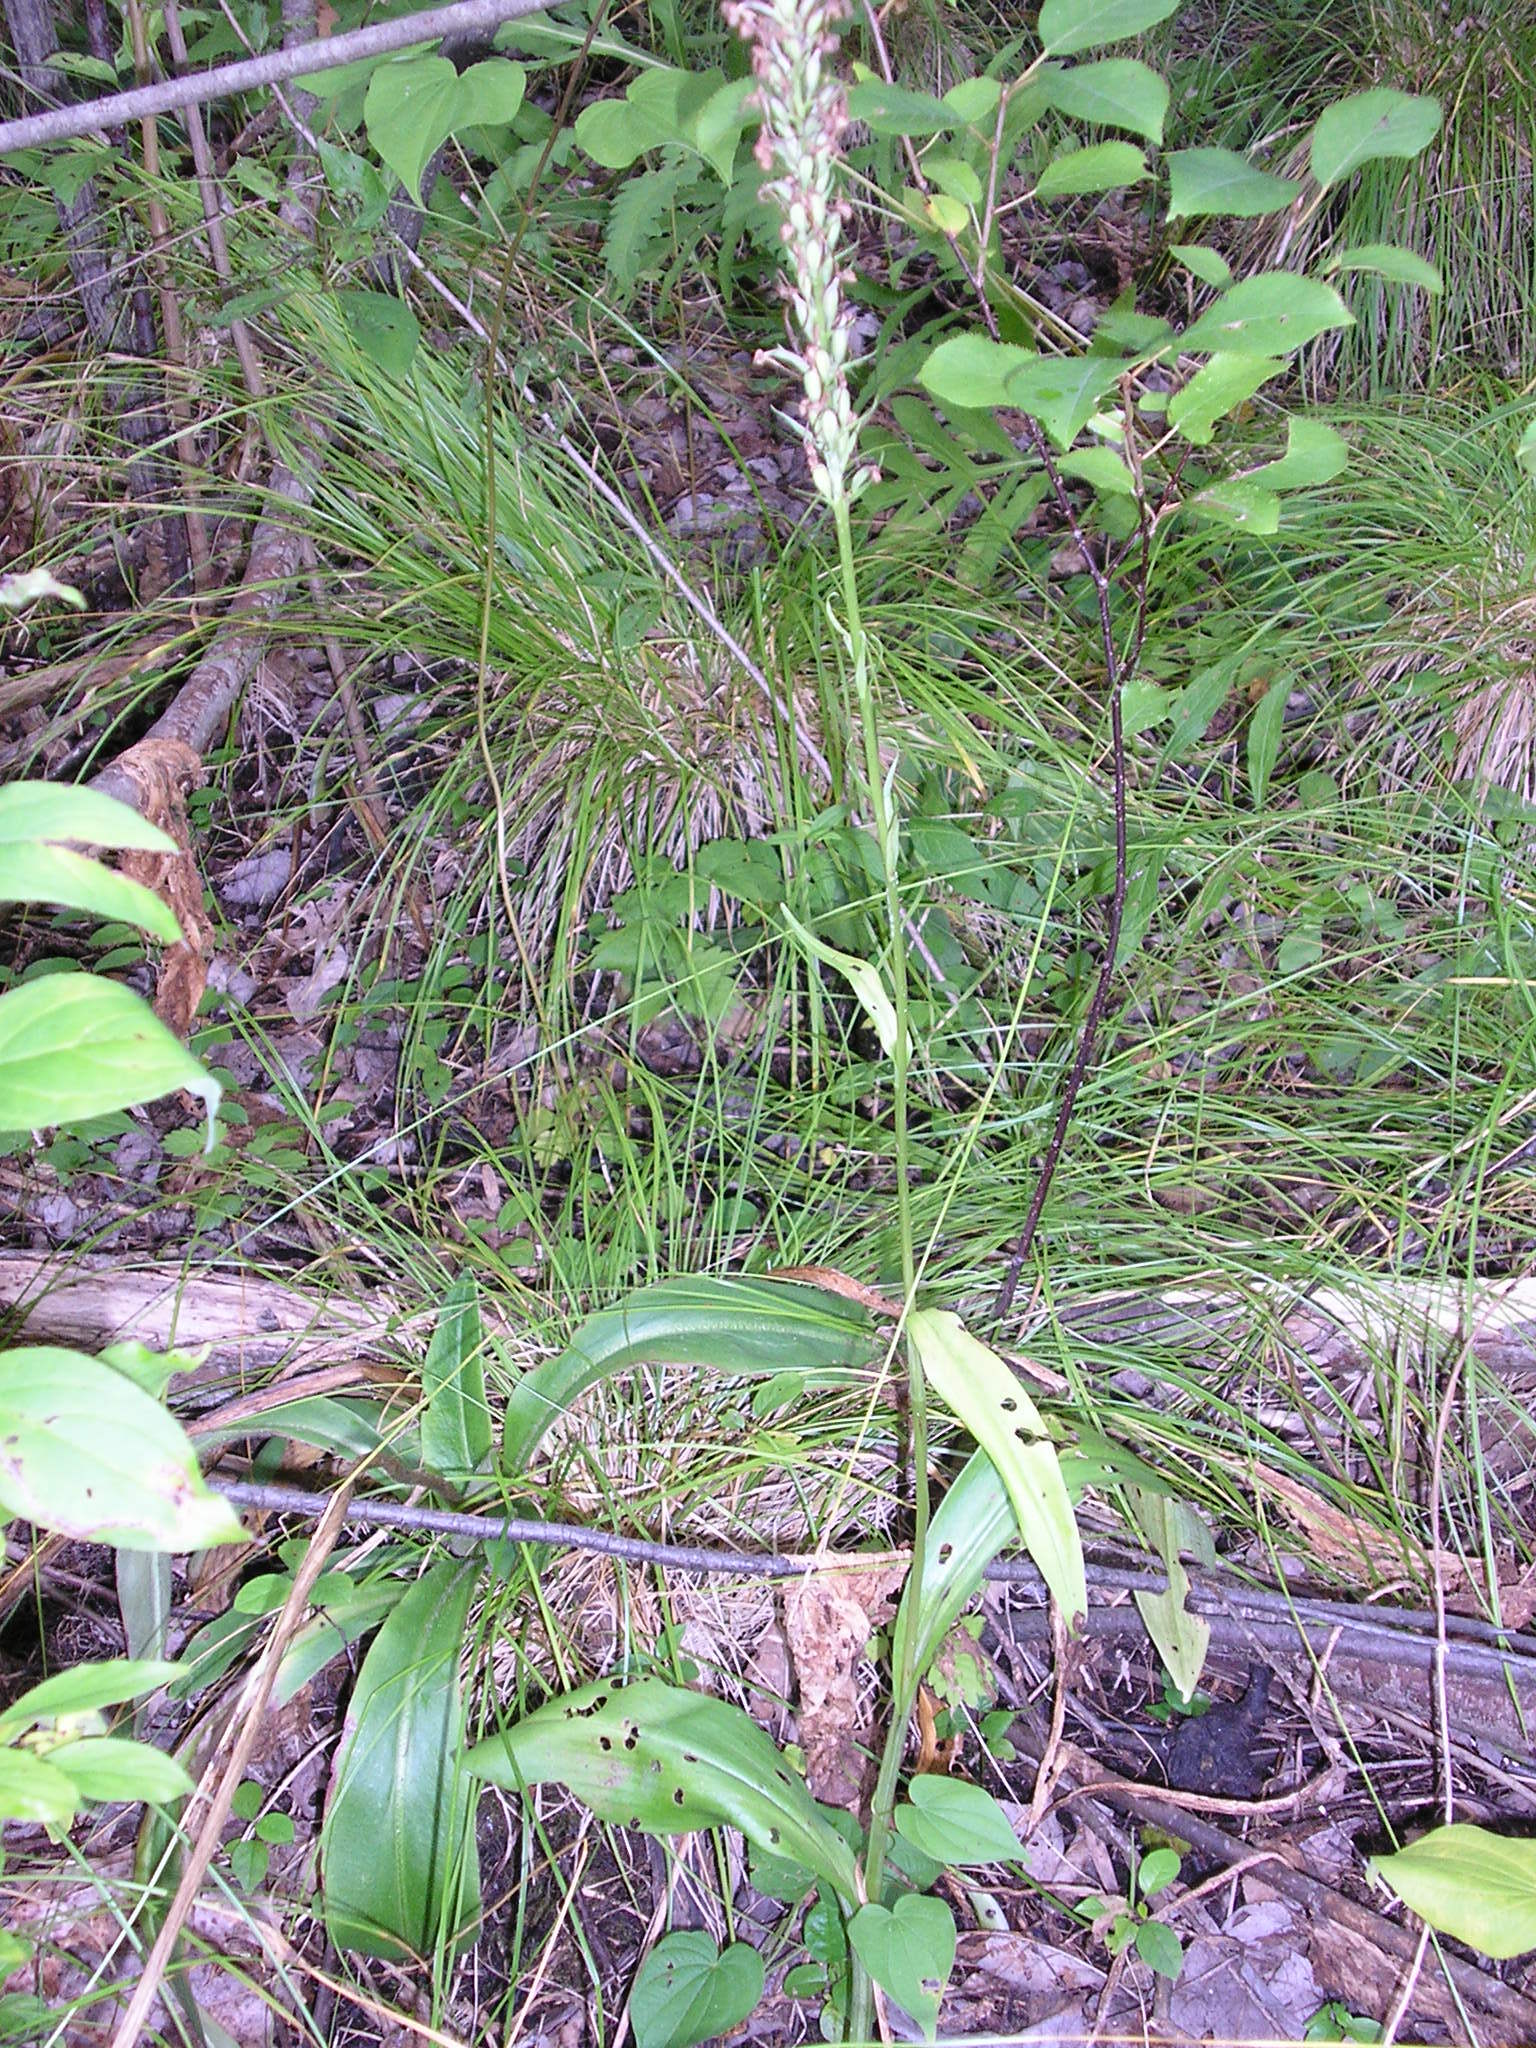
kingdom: Plantae
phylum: Tracheophyta
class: Liliopsida
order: Asparagales
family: Orchidaceae
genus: Platanthera
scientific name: Platanthera psycodes
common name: Lesser purple fringed orchid
